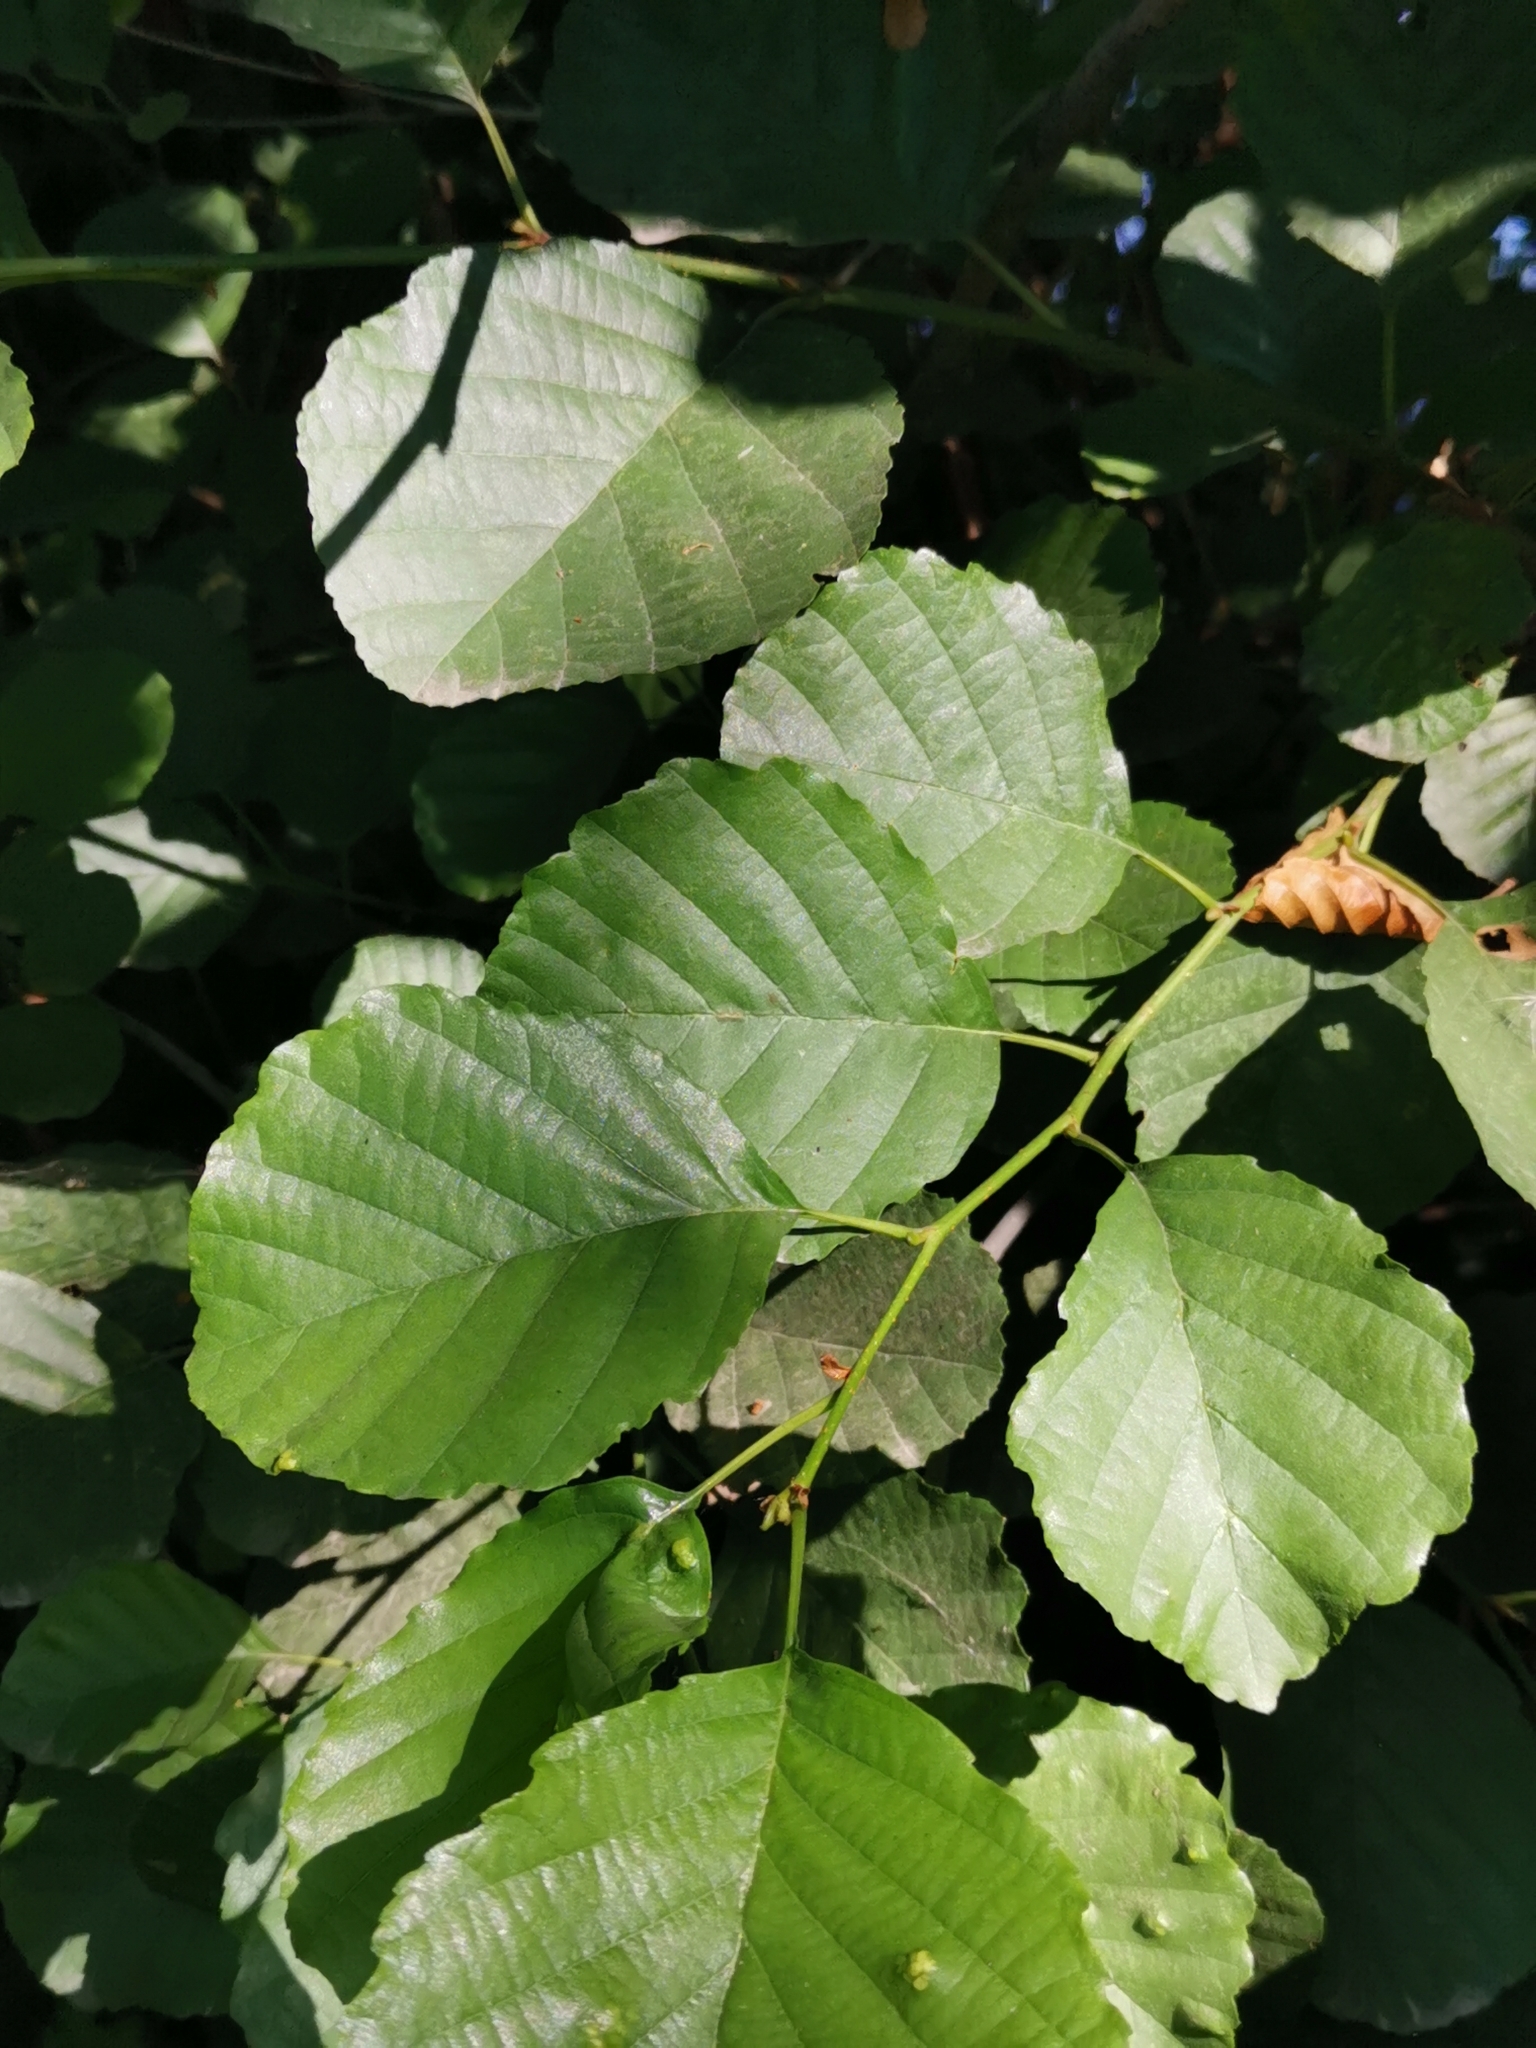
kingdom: Plantae
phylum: Tracheophyta
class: Magnoliopsida
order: Fagales
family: Betulaceae
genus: Alnus
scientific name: Alnus glutinosa
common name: Black alder
